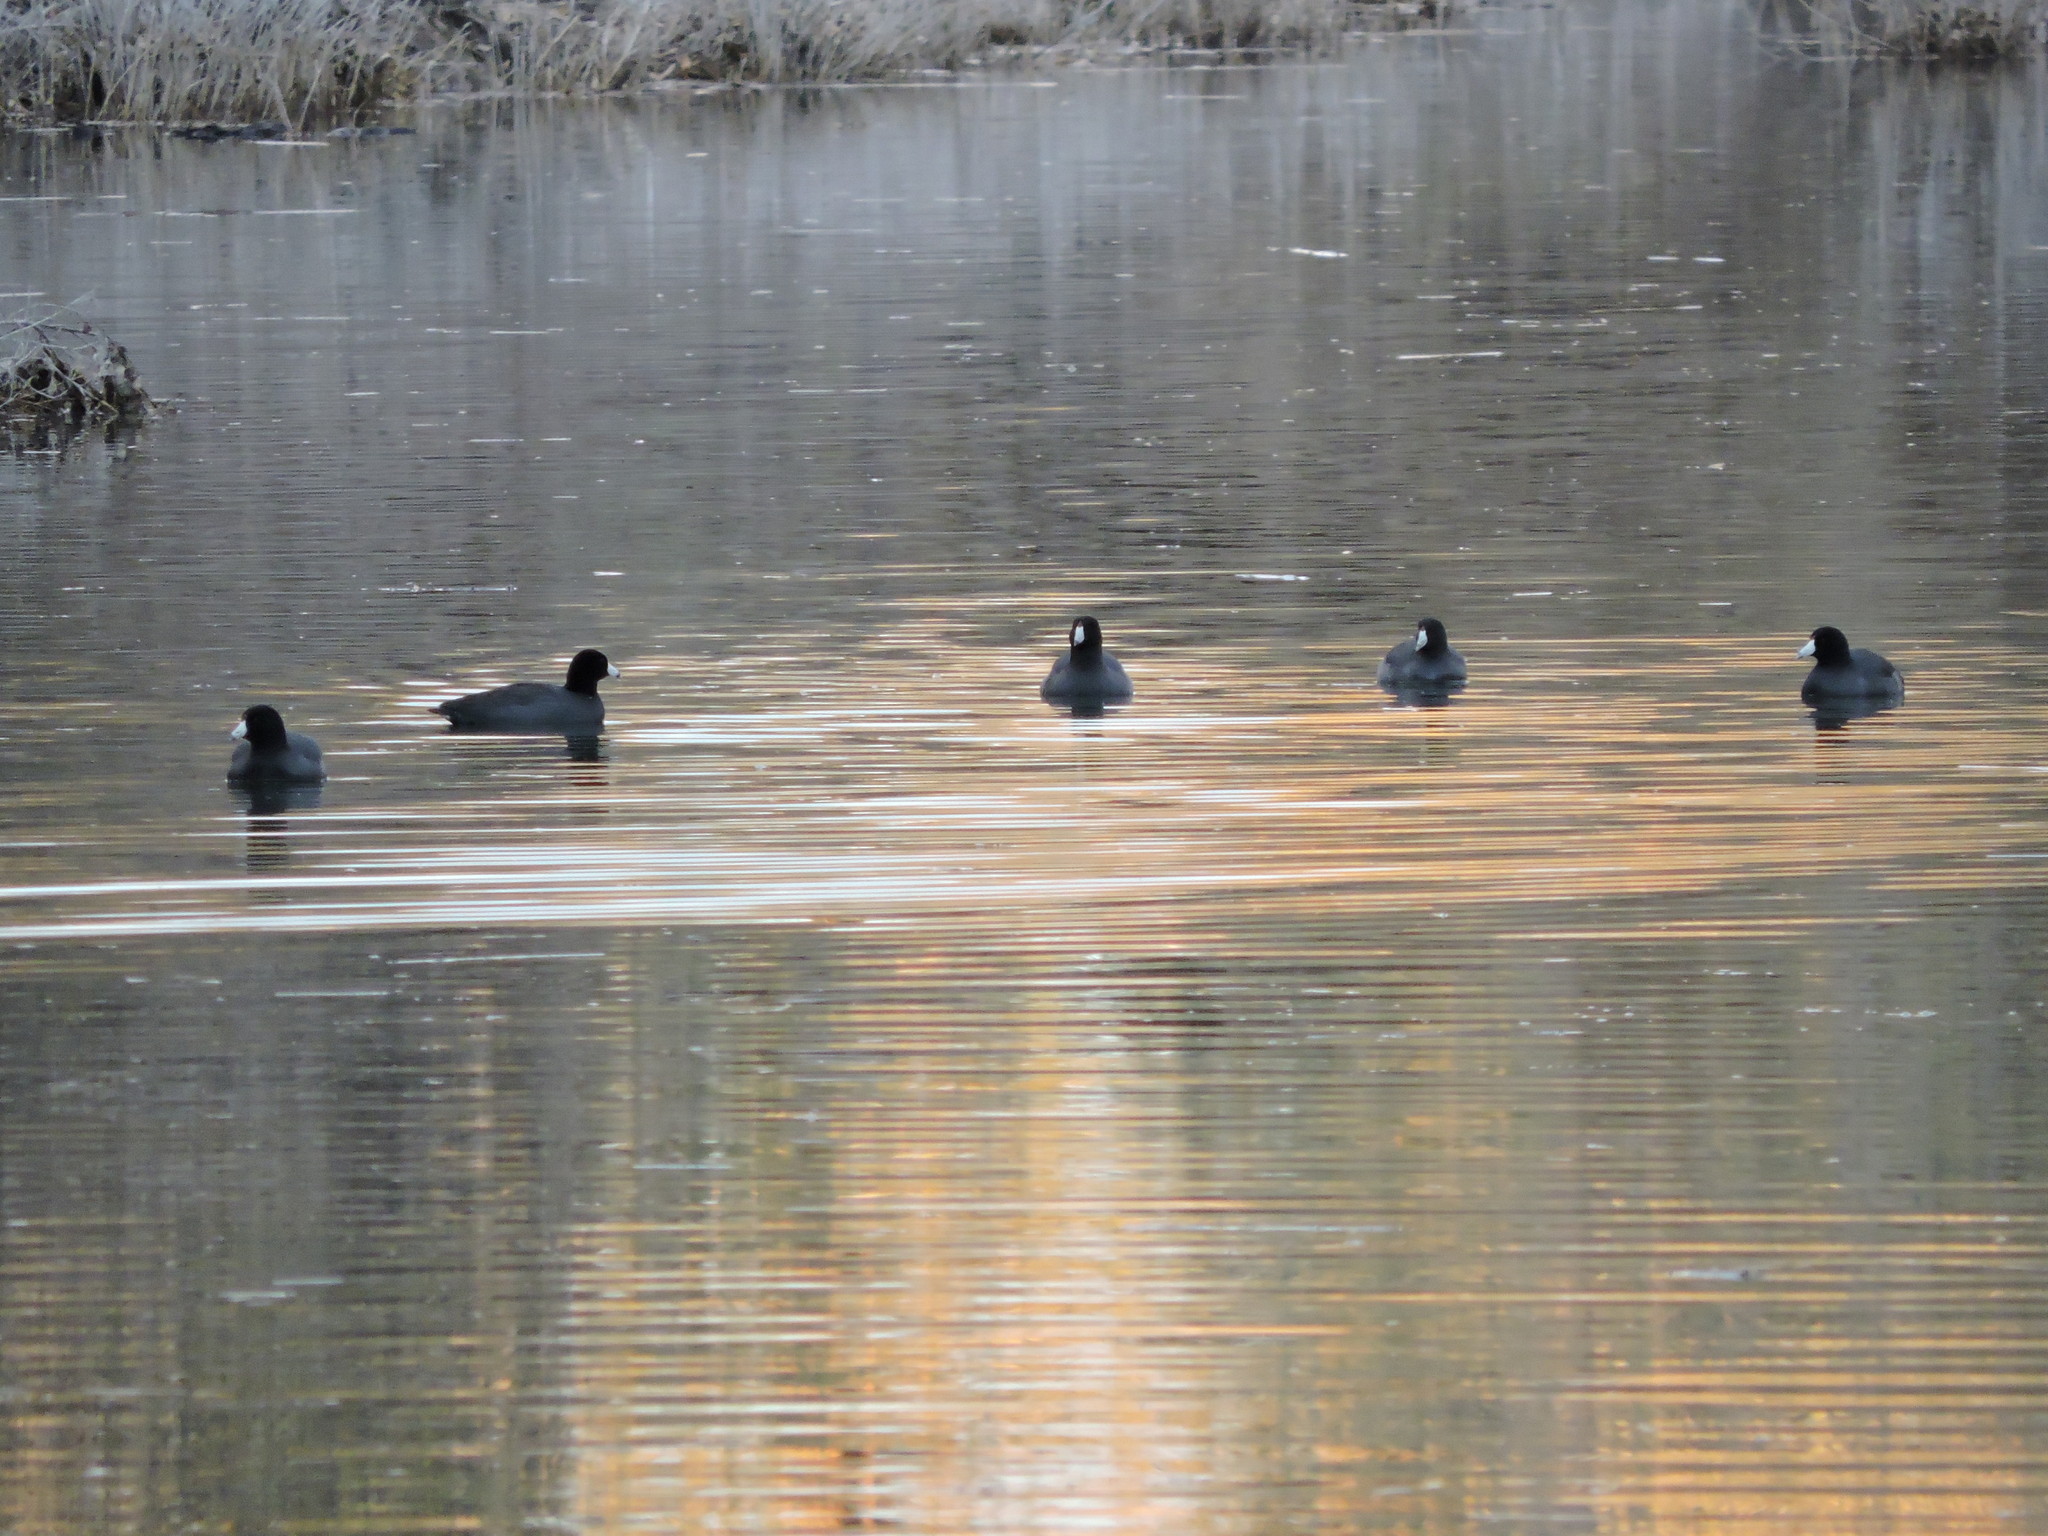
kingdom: Animalia
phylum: Chordata
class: Aves
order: Gruiformes
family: Rallidae
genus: Fulica
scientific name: Fulica americana
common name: American coot
